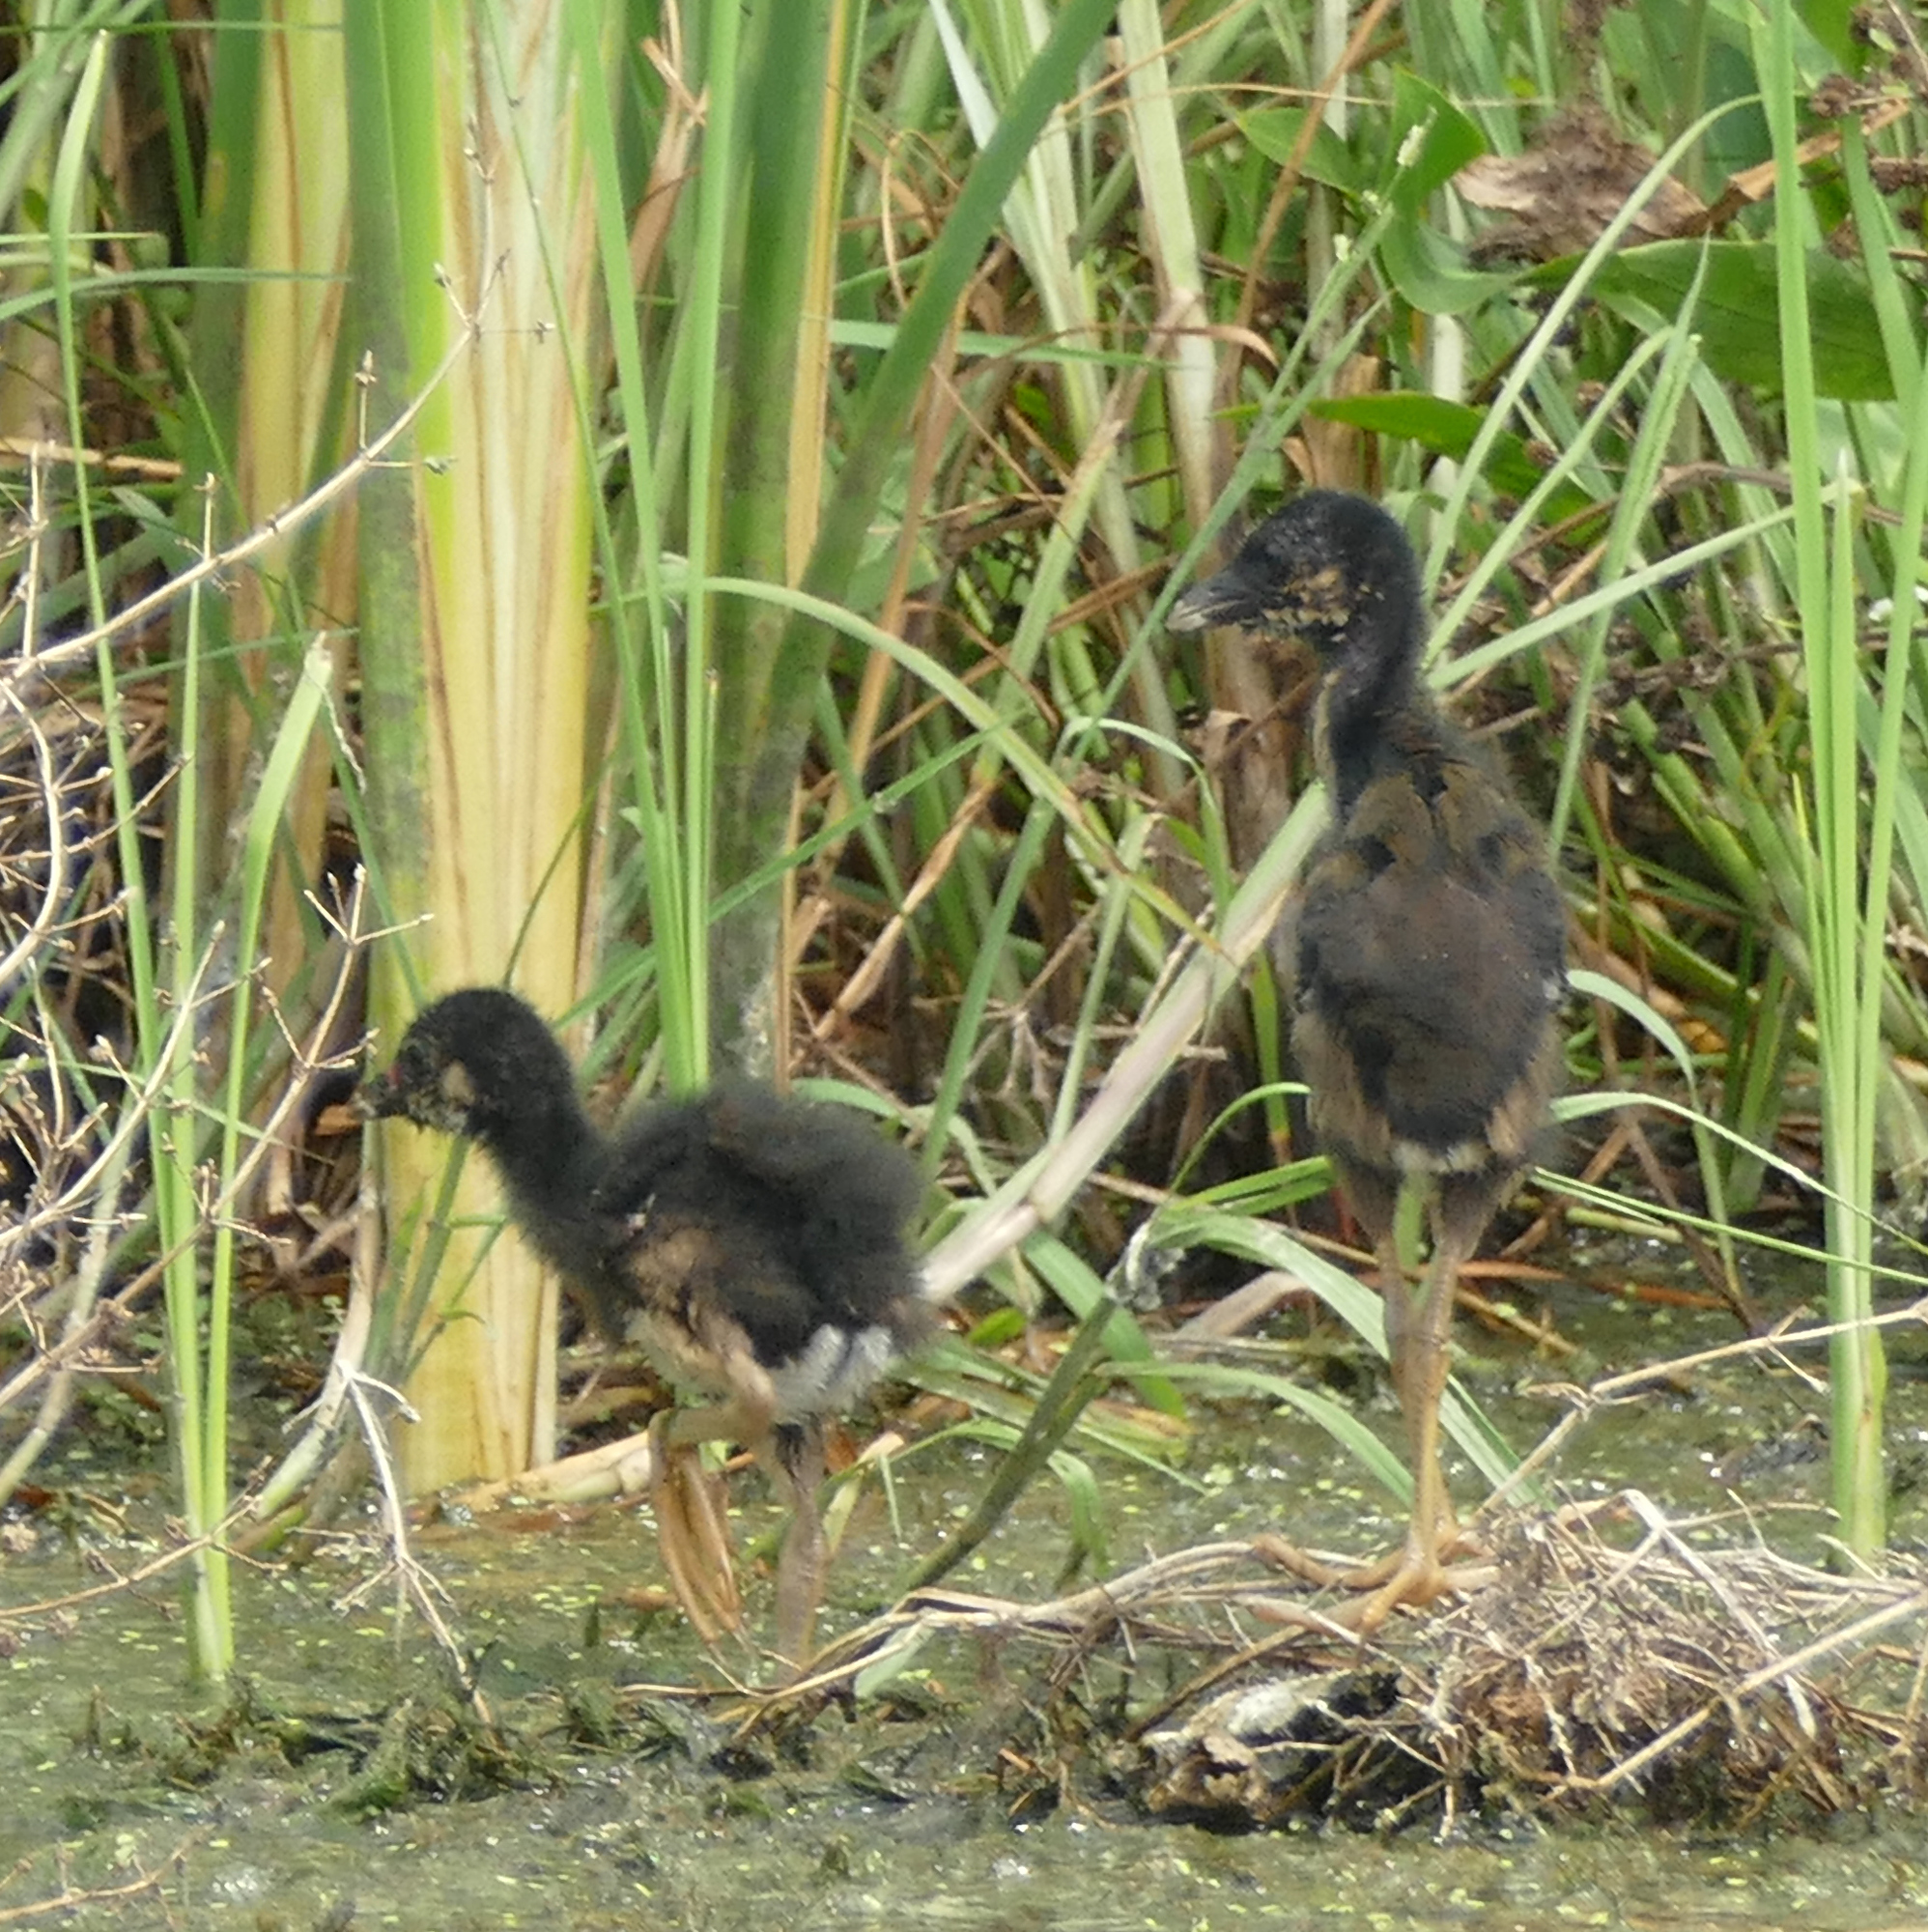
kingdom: Animalia
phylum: Chordata
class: Aves
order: Gruiformes
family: Rallidae
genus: Porphyrio
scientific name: Porphyrio martinica
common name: Purple gallinule
